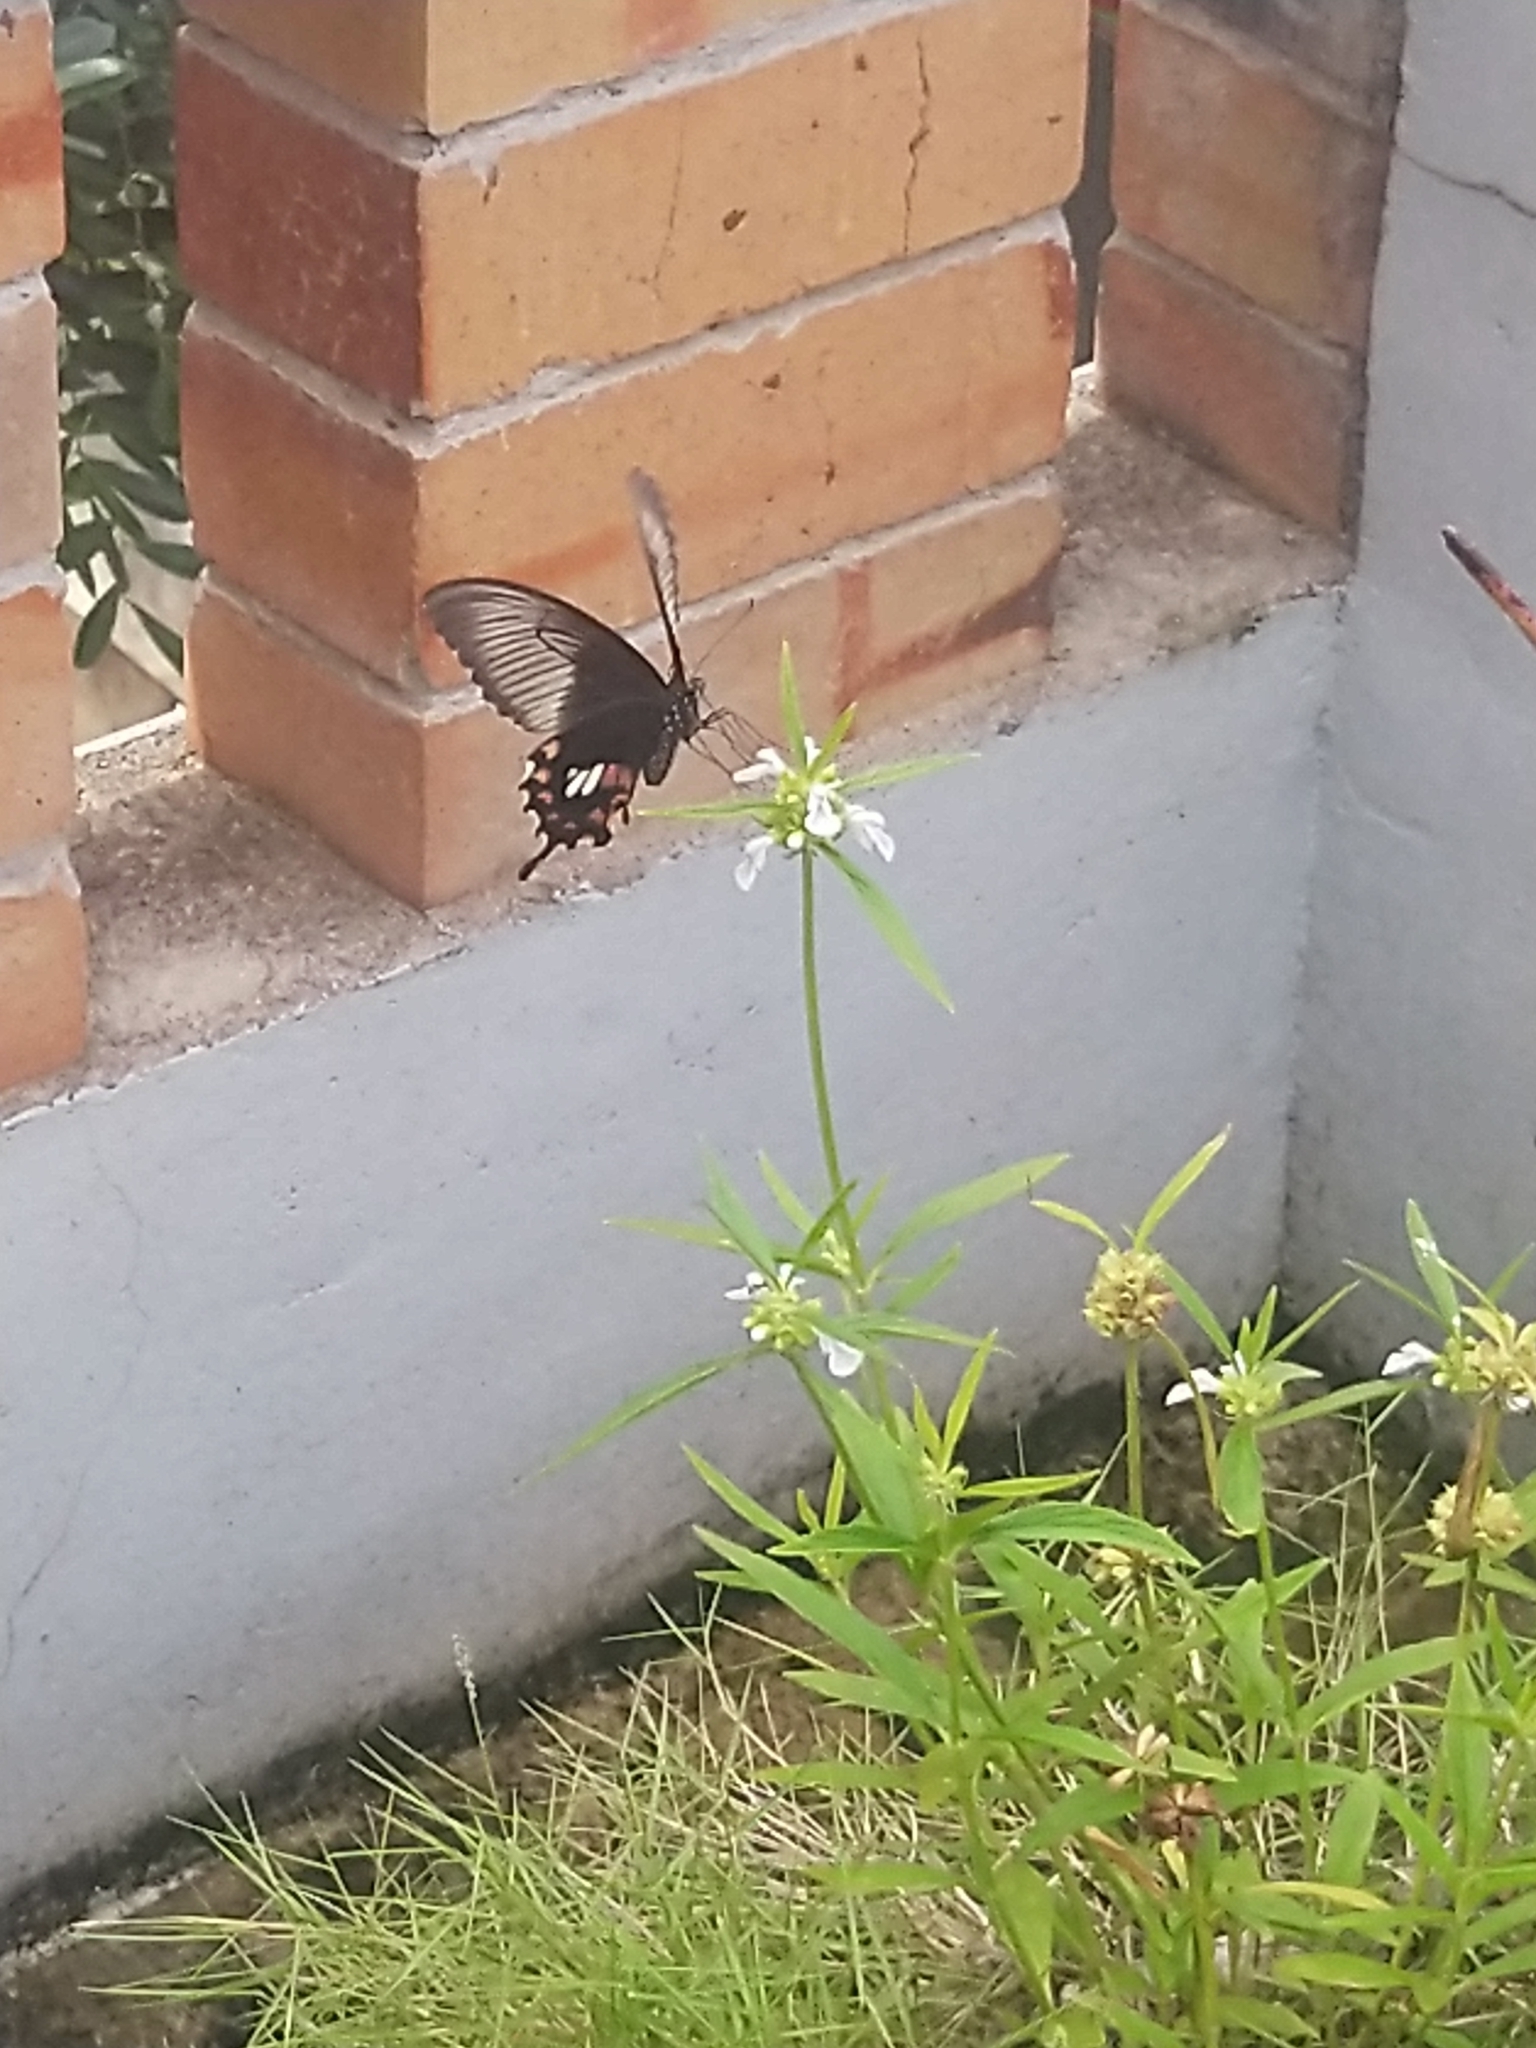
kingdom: Animalia
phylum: Arthropoda
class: Insecta
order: Lepidoptera
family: Papilionidae
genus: Papilio
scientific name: Papilio polytes
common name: Common mormon
